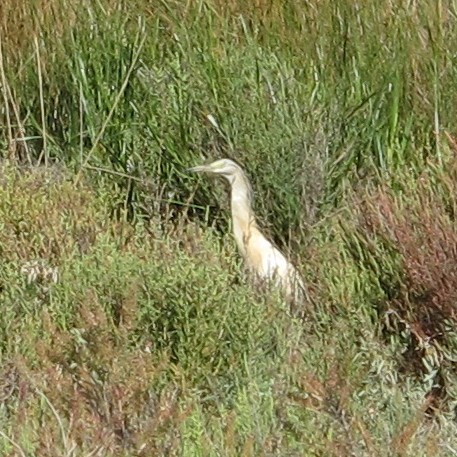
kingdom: Animalia
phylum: Chordata
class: Aves
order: Pelecaniformes
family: Ardeidae
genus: Ardeola
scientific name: Ardeola ralloides
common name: Squacco heron
